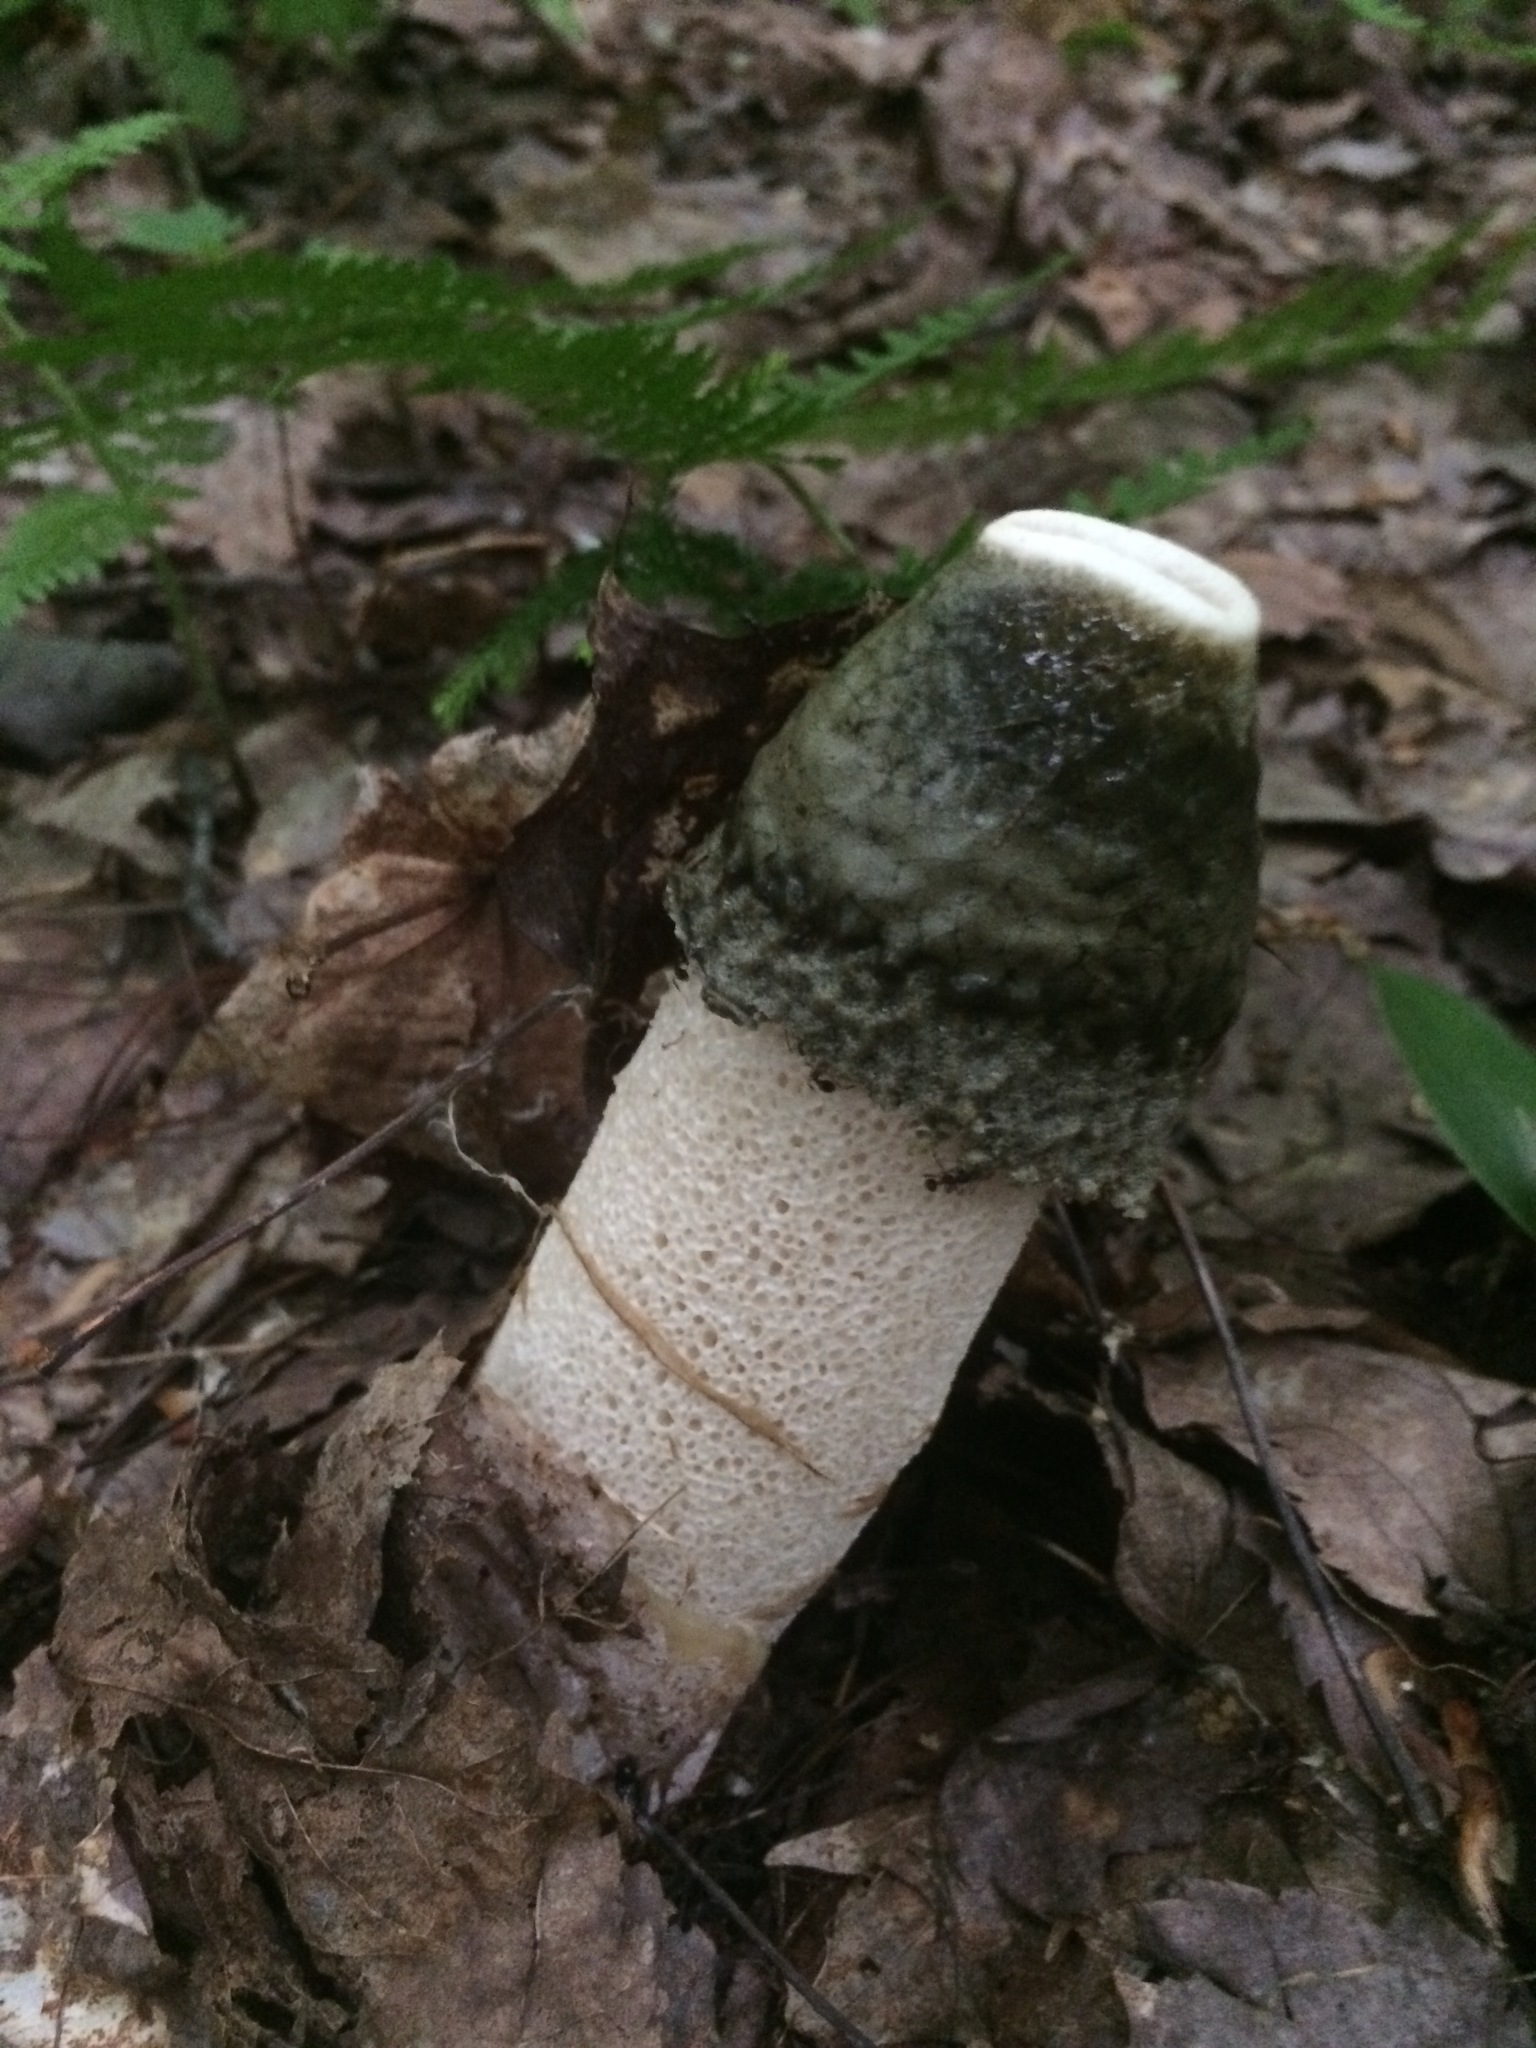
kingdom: Fungi
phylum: Basidiomycota
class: Agaricomycetes
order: Phallales
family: Phallaceae
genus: Phallus
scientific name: Phallus ravenelii
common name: Ravenel's stinkhorn
